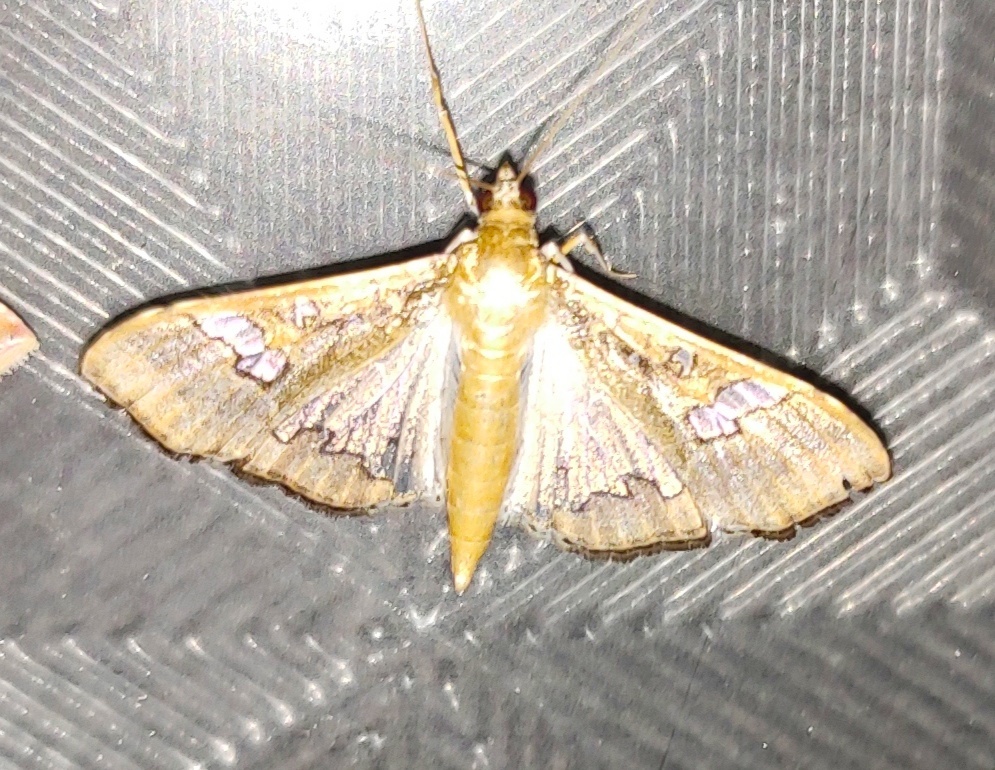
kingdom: Animalia
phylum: Arthropoda
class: Insecta
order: Lepidoptera
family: Crambidae
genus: Maruca
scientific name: Maruca vitrata
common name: Maruca pod borer
